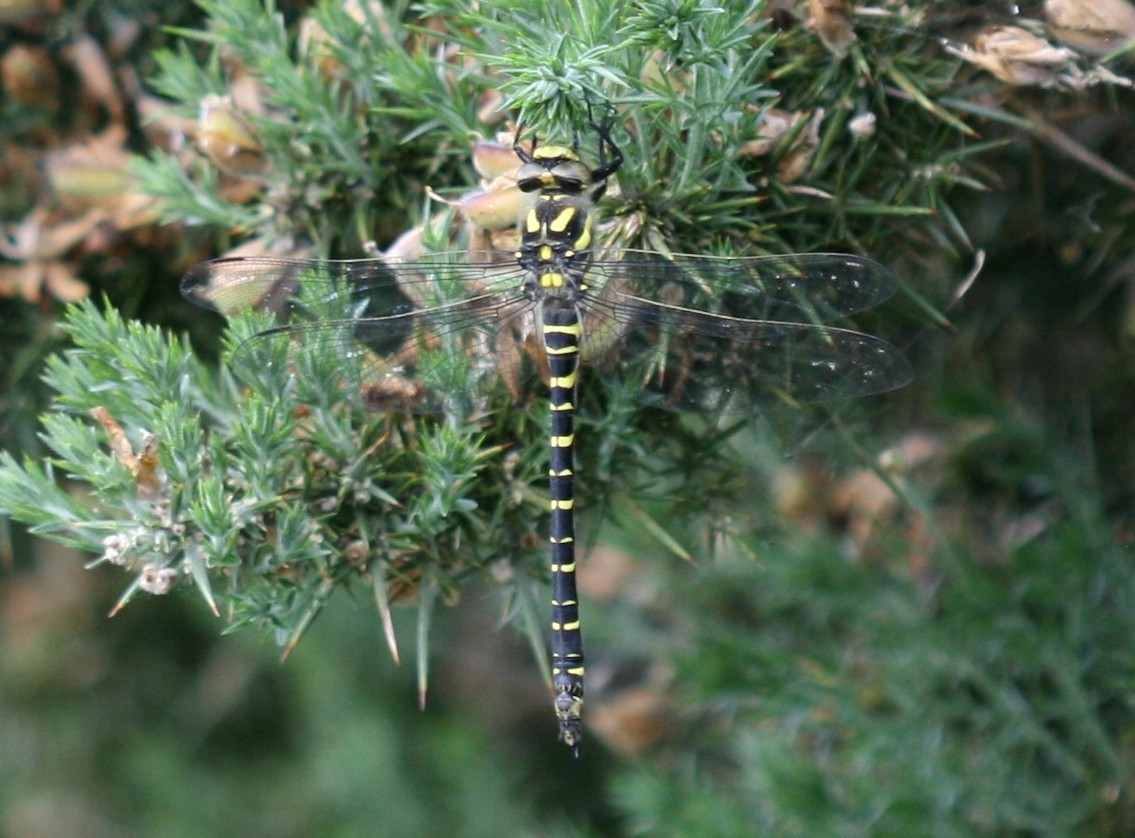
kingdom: Animalia
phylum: Arthropoda
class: Insecta
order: Odonata
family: Cordulegastridae
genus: Cordulegaster
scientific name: Cordulegaster boltonii
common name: Golden-ringed dragonfly
